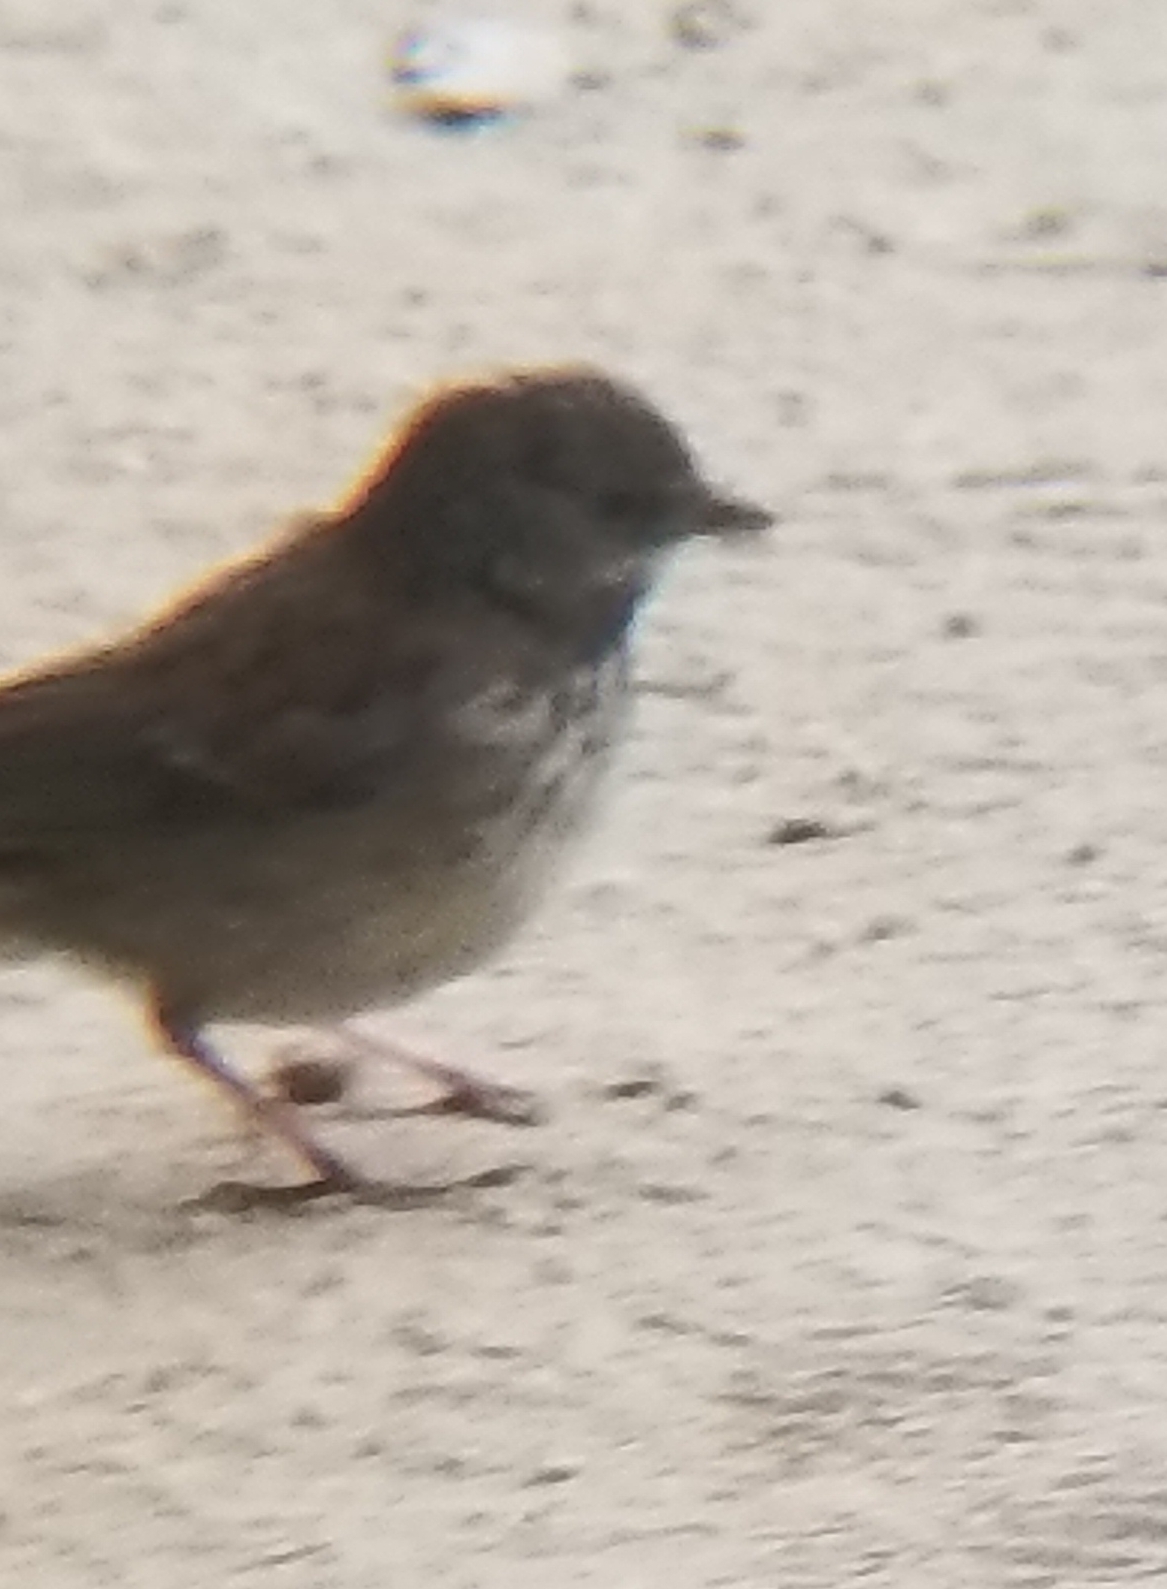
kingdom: Animalia
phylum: Chordata
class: Aves
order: Passeriformes
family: Passerellidae
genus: Junco
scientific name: Junco hyemalis
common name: Dark-eyed junco
